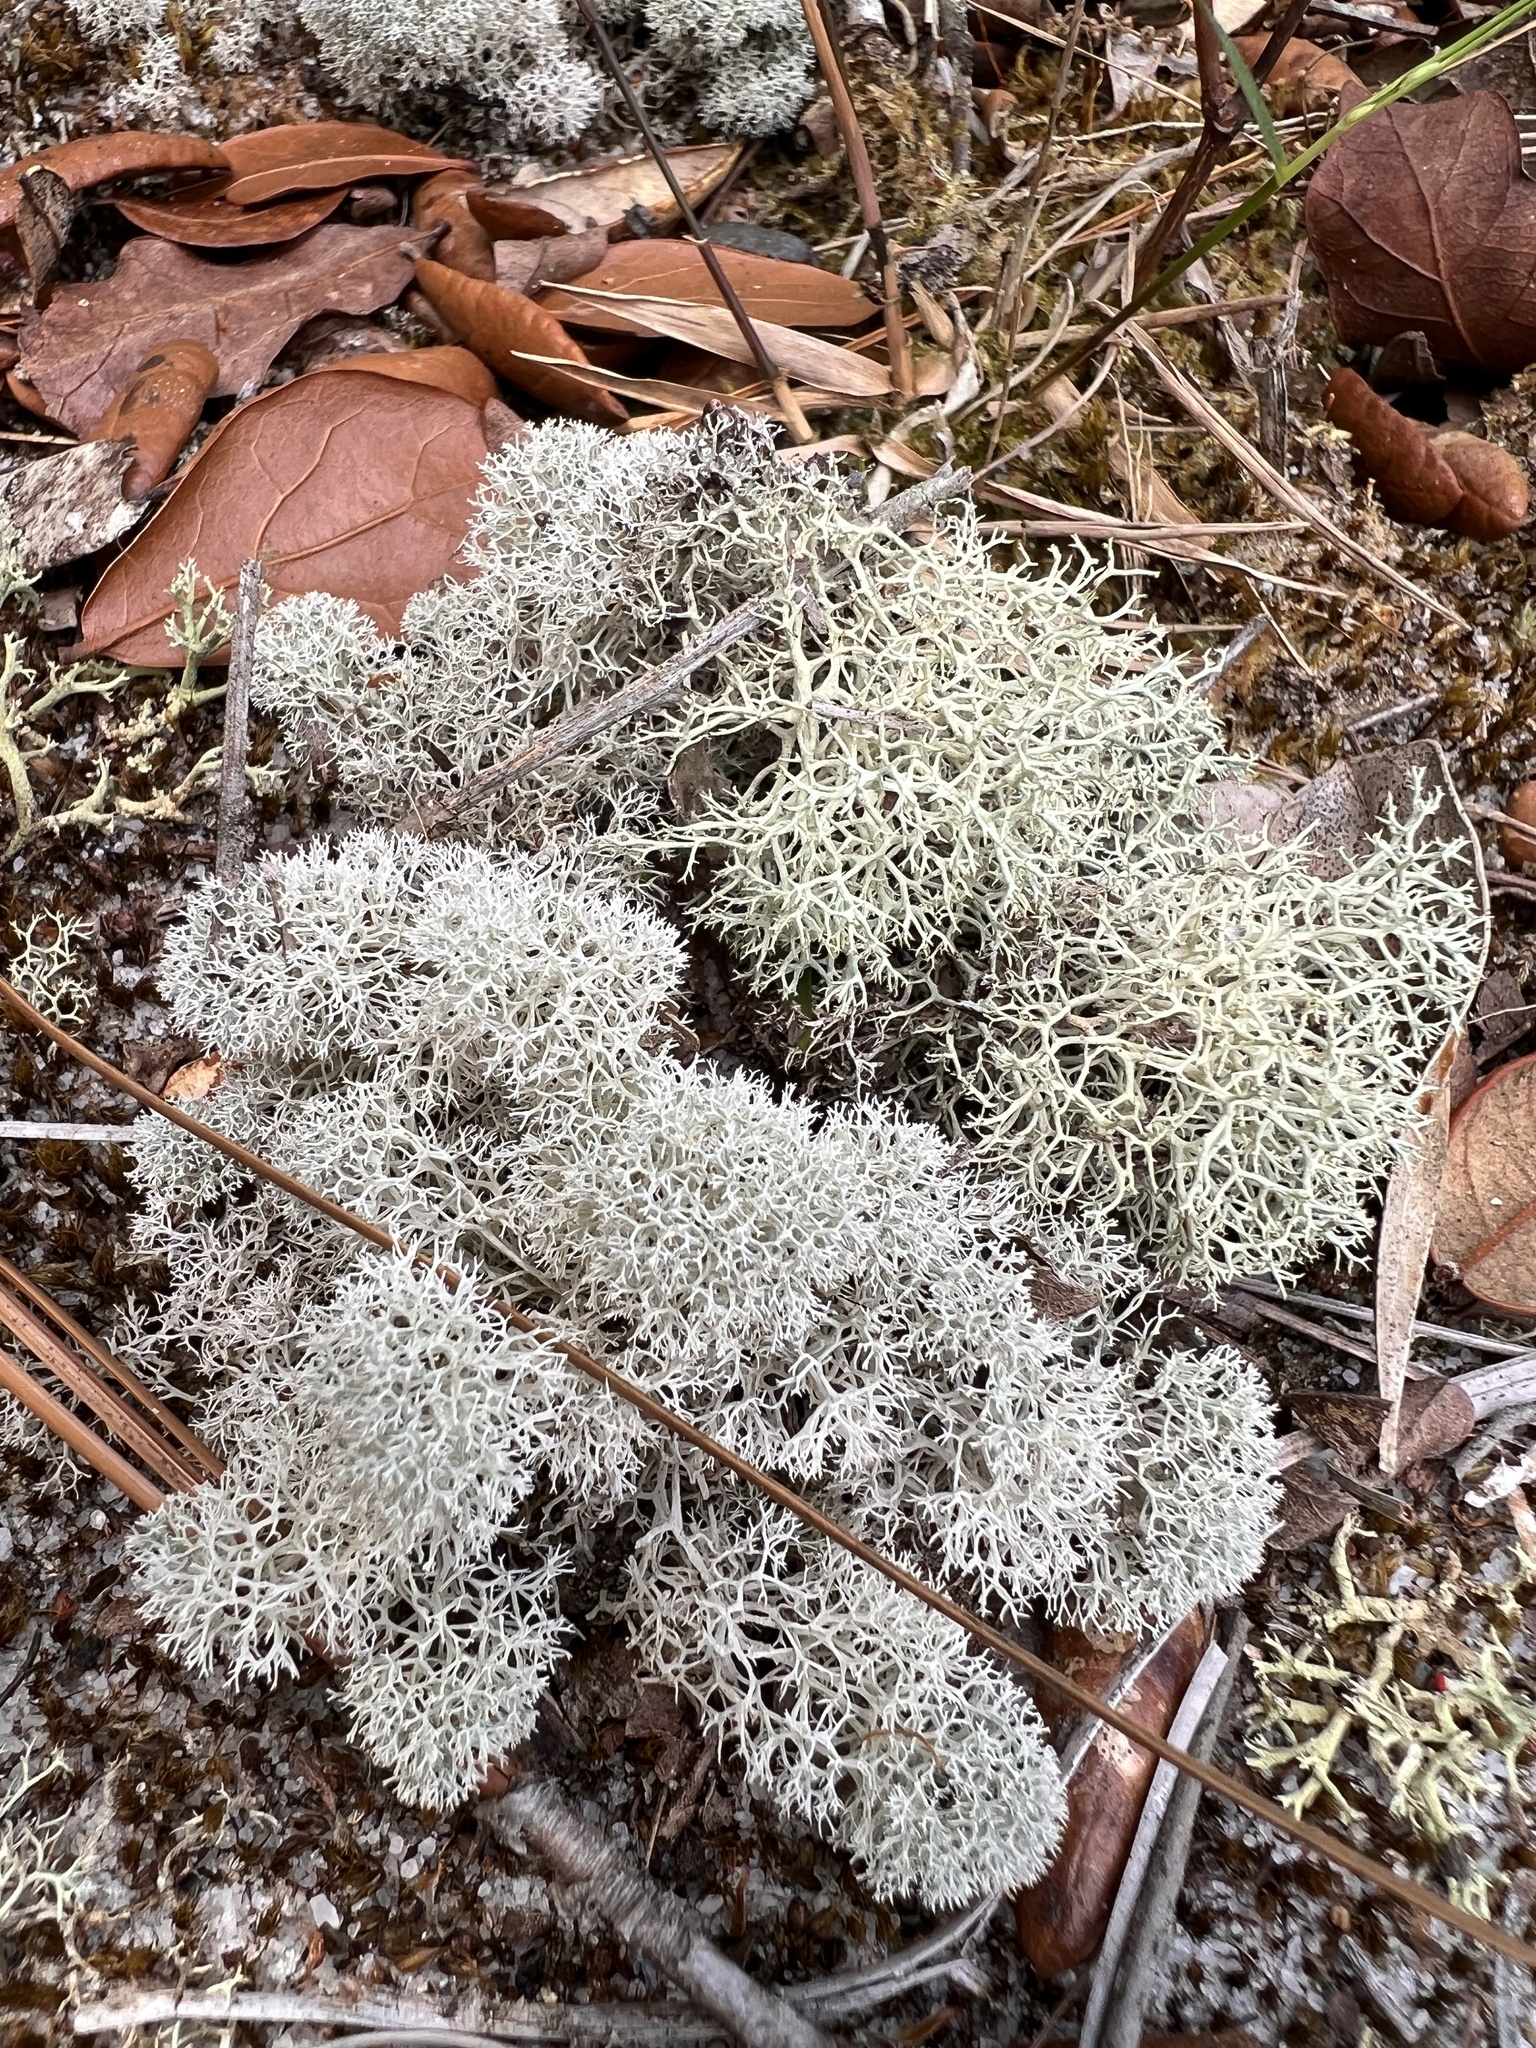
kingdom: Fungi
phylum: Ascomycota
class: Lecanoromycetes
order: Lecanorales
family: Cladoniaceae
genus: Cladonia
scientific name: Cladonia evansii
